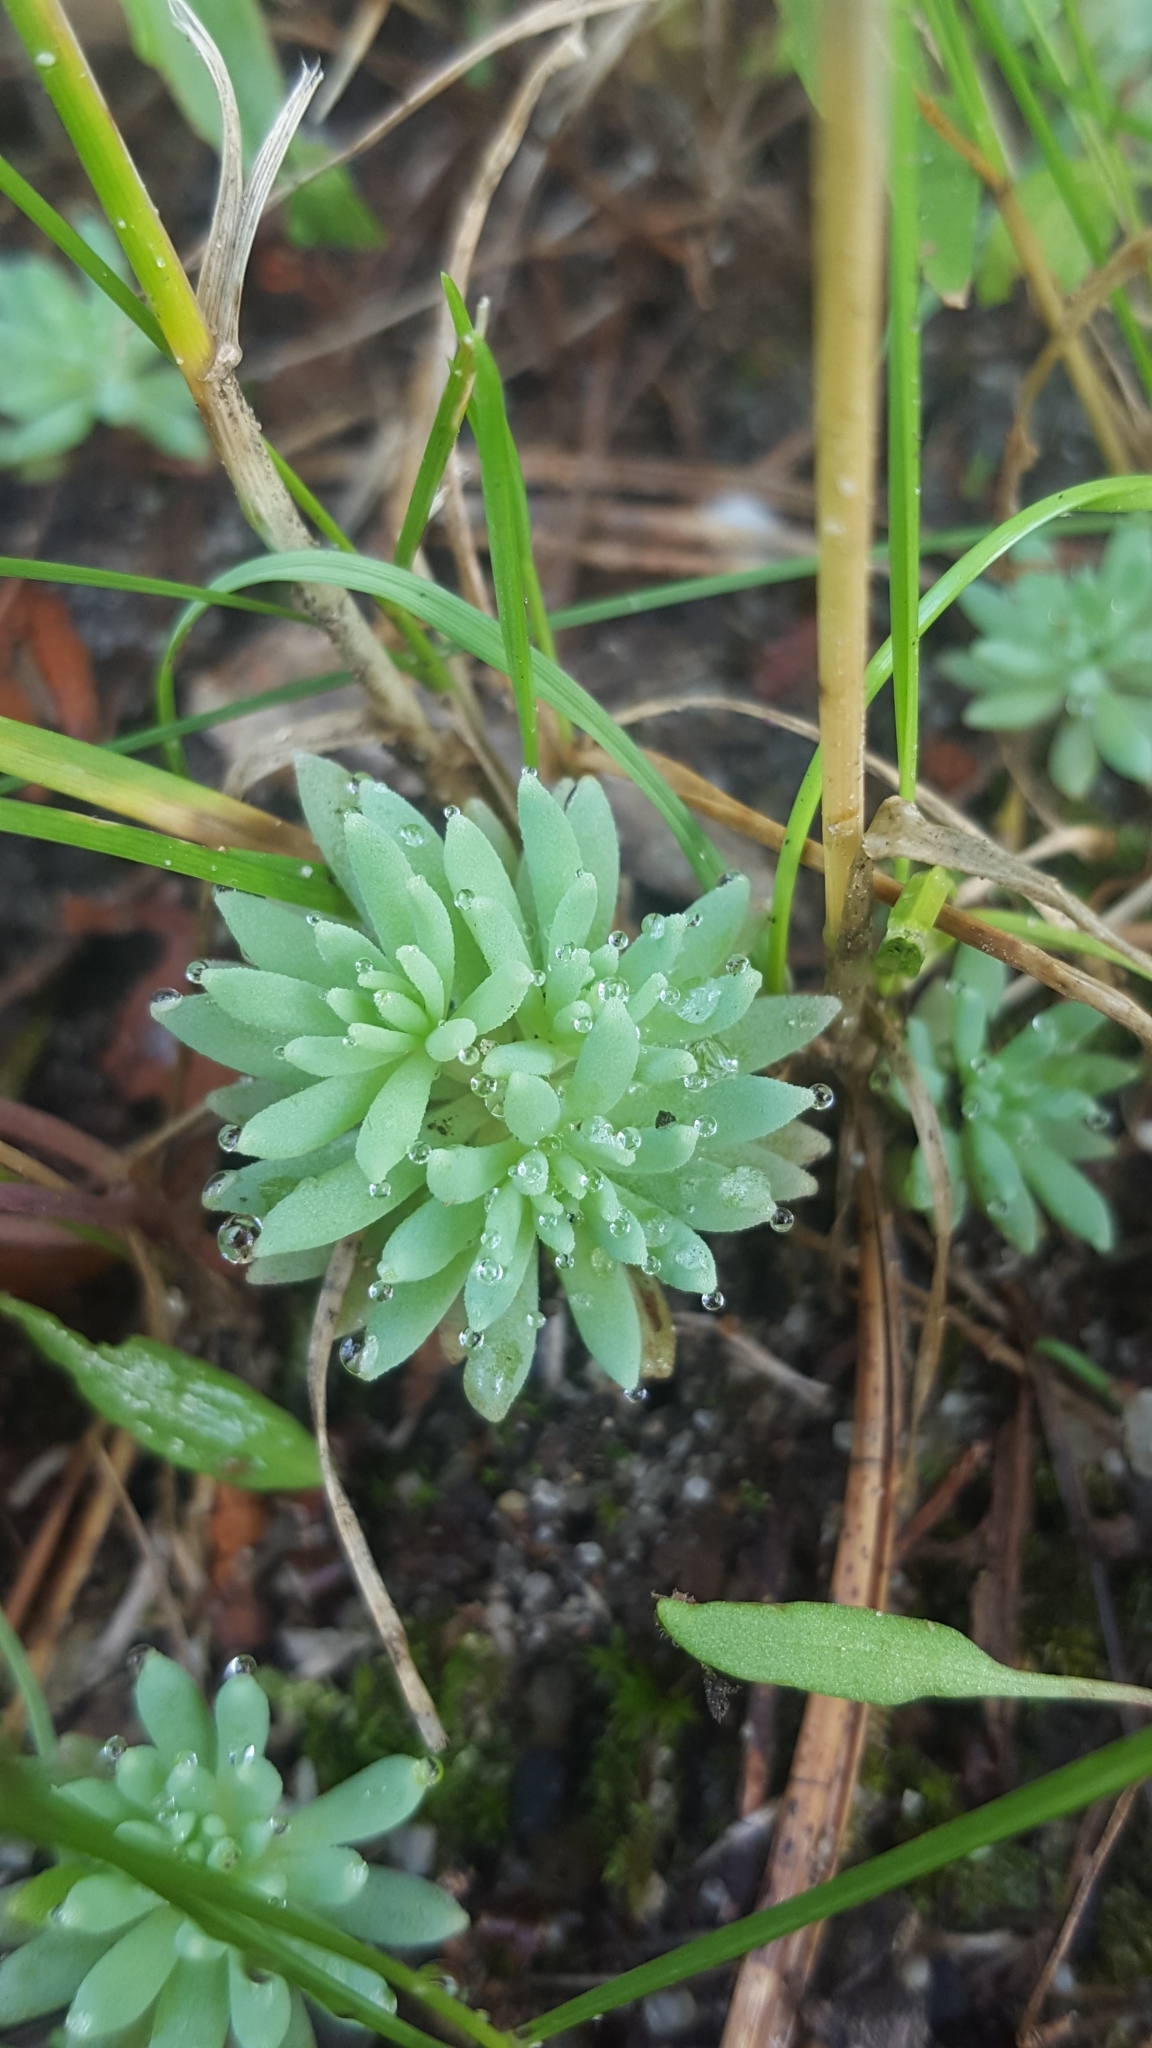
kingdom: Plantae
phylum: Tracheophyta
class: Magnoliopsida
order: Saxifragales
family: Crassulaceae
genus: Sedum
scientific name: Sedum hispanicum
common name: Spanish stonecrop
